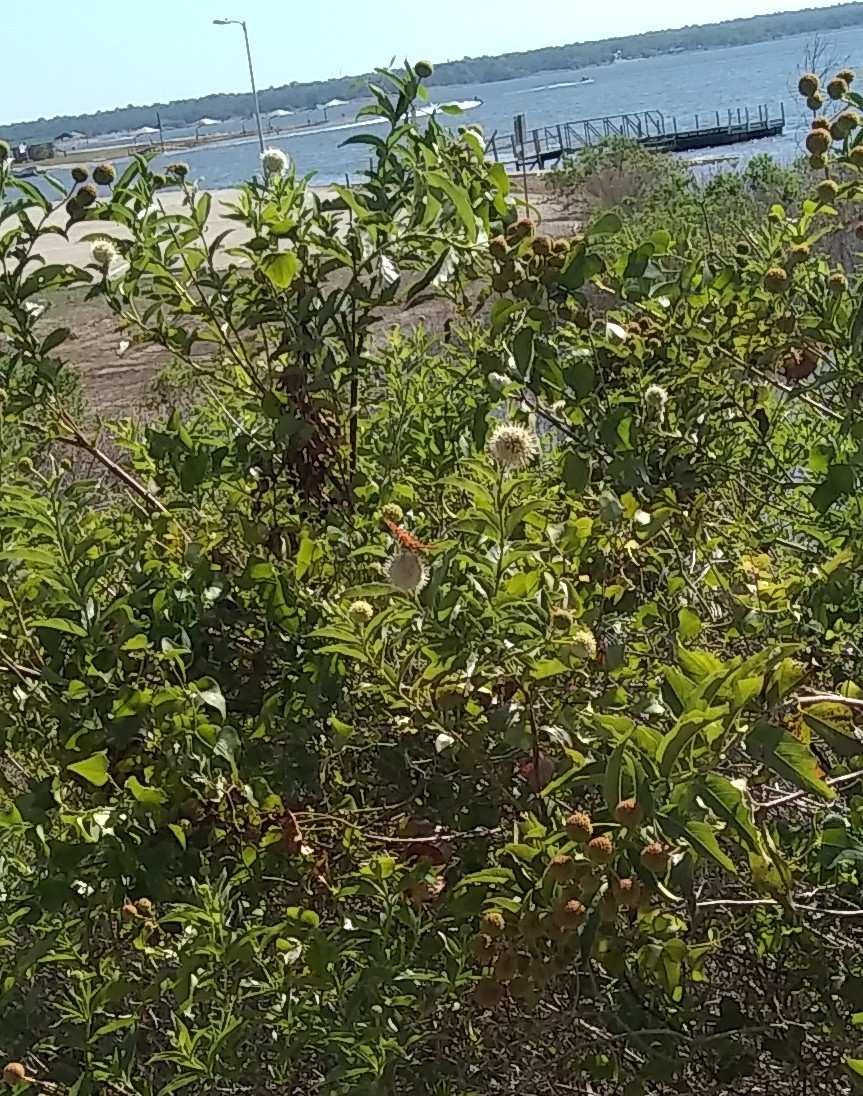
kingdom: Animalia
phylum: Arthropoda
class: Insecta
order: Lepidoptera
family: Nymphalidae
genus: Dione
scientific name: Dione vanillae
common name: Gulf fritillary
